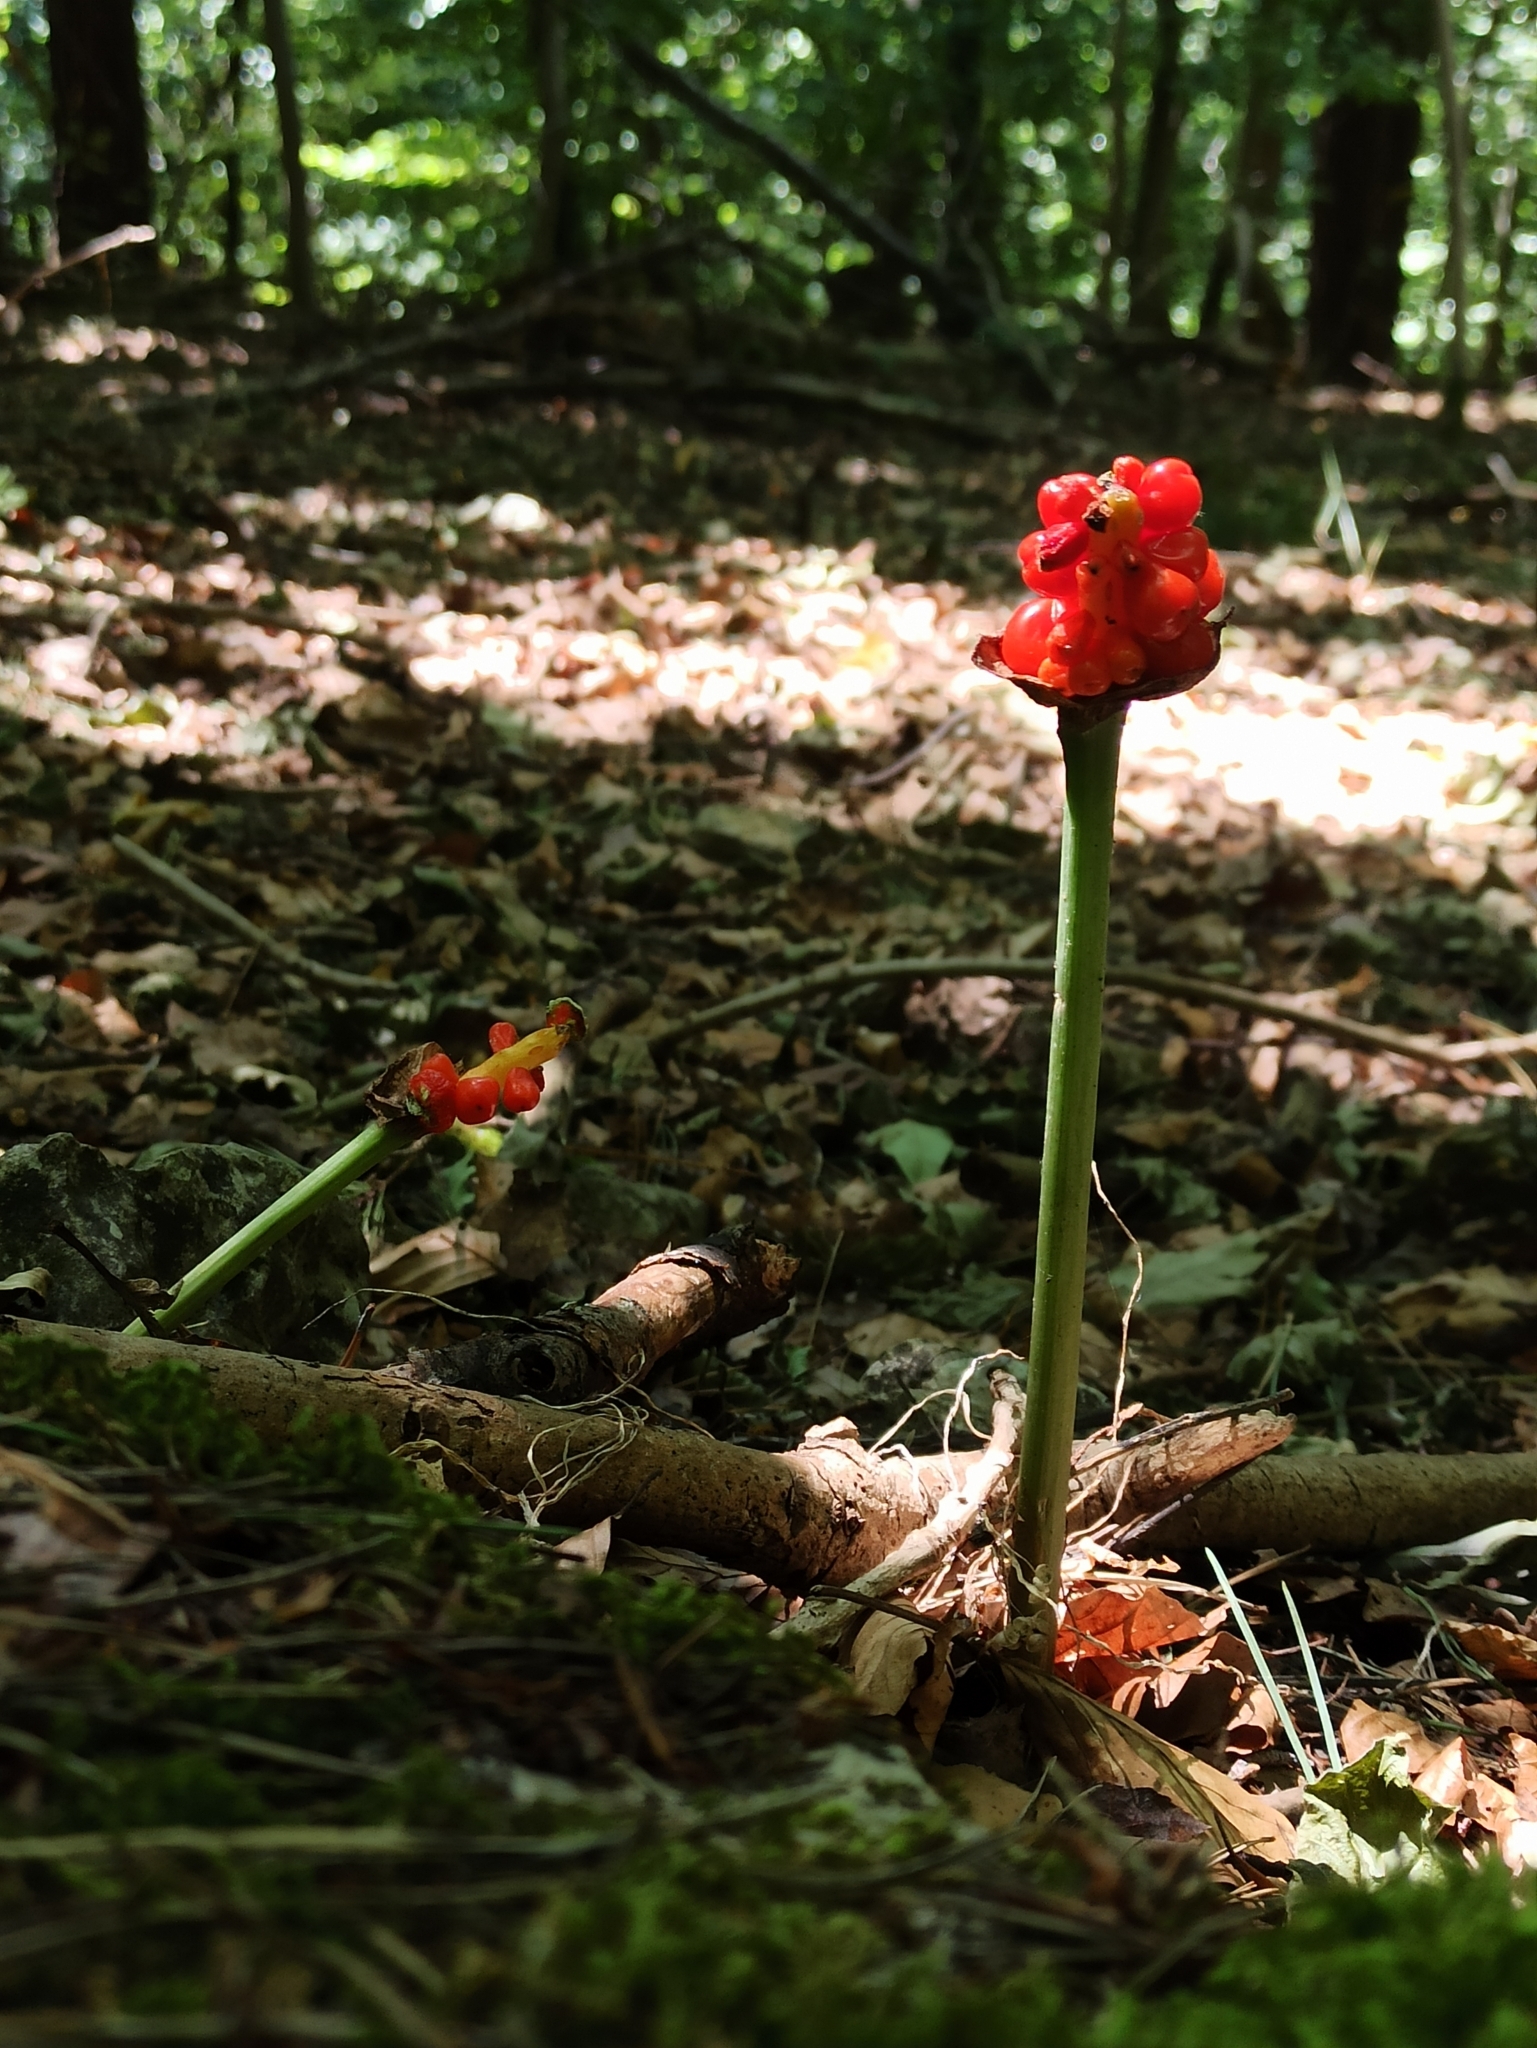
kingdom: Plantae
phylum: Tracheophyta
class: Liliopsida
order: Alismatales
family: Araceae
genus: Arum
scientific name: Arum maculatum
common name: Lords-and-ladies
